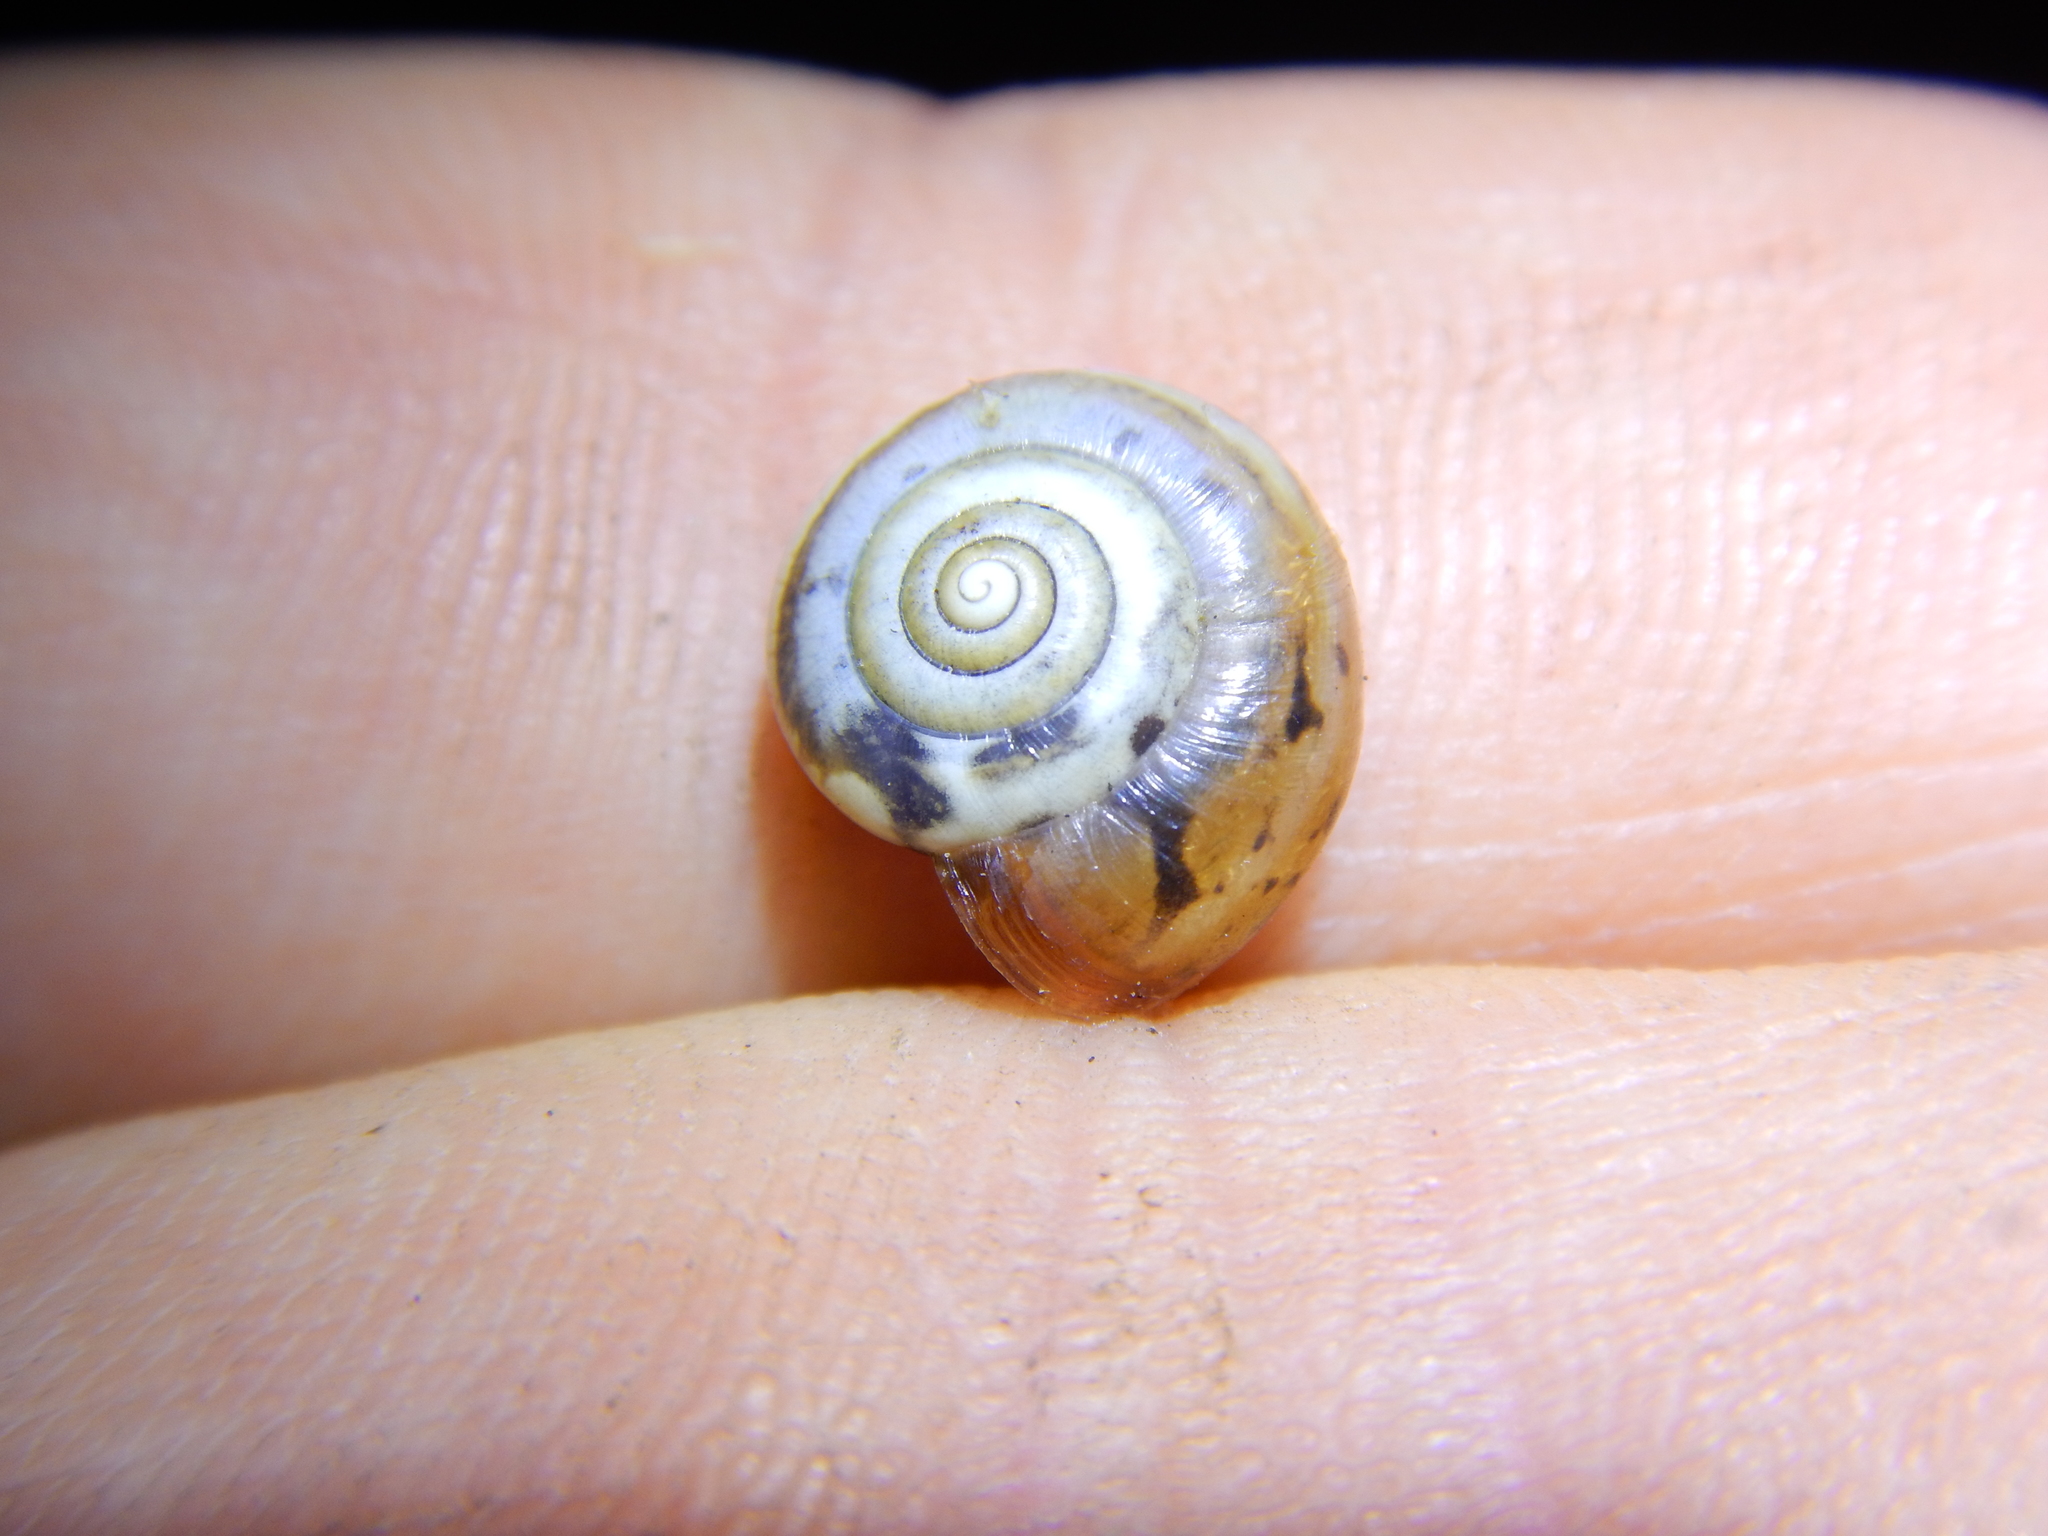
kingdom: Animalia
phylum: Mollusca
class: Gastropoda
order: Stylommatophora
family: Hygromiidae
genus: Monacha
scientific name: Monacha cartusiana
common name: Carthusian snail
